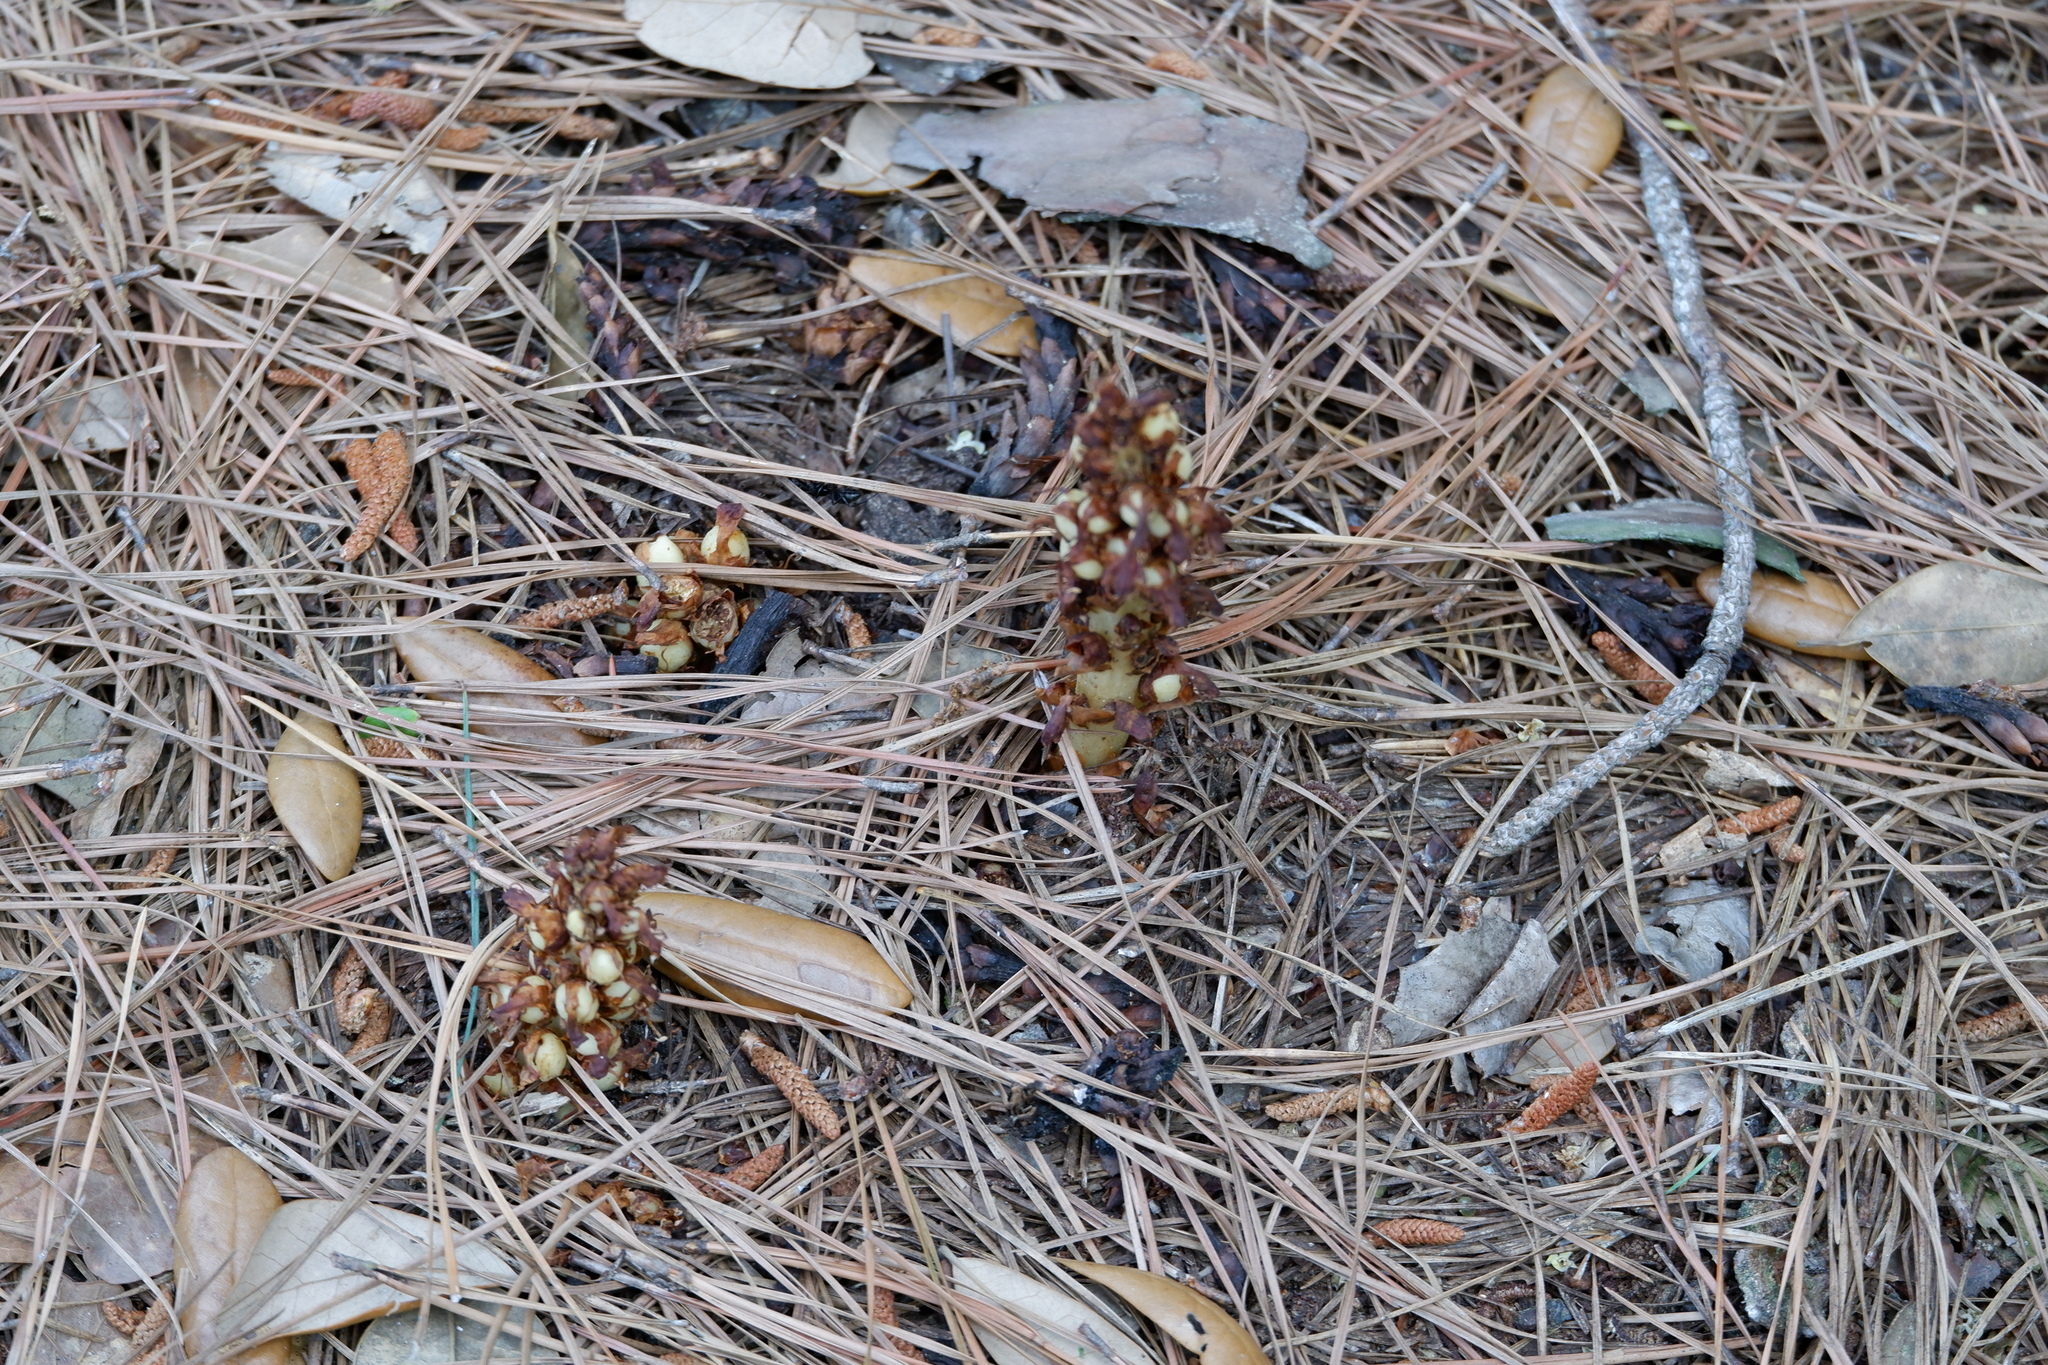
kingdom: Plantae
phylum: Tracheophyta
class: Magnoliopsida
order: Lamiales
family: Orobanchaceae
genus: Conopholis
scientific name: Conopholis americana
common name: American cancer-root
